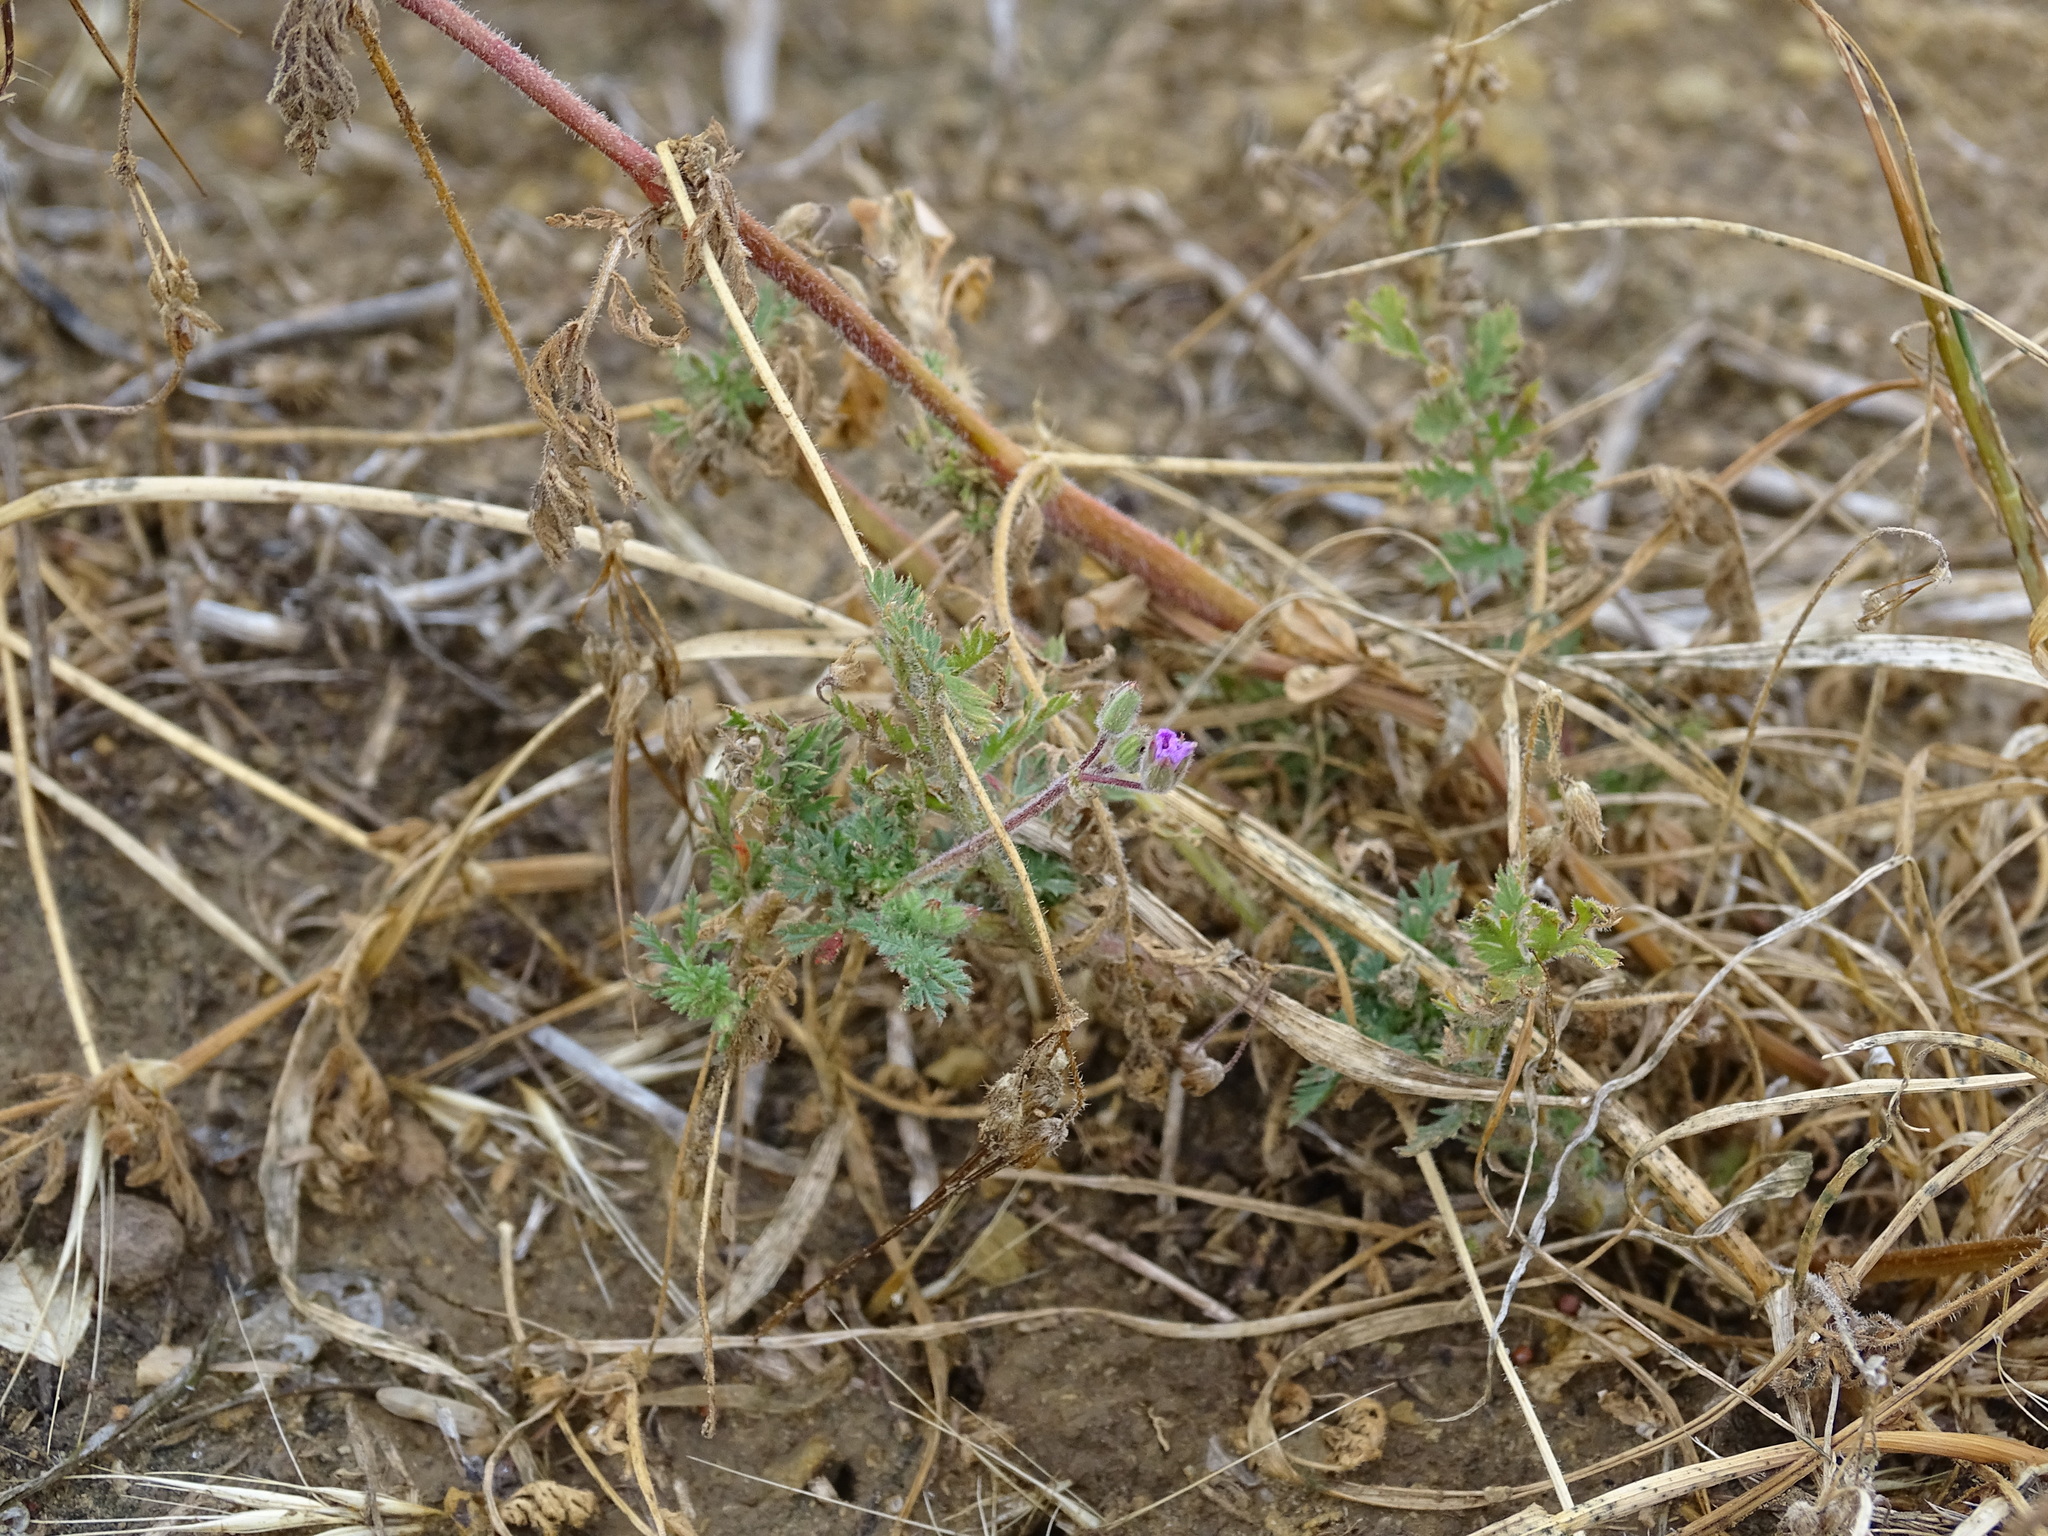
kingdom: Plantae
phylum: Tracheophyta
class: Magnoliopsida
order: Geraniales
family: Geraniaceae
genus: Erodium
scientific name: Erodium cicutarium
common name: Common stork's-bill
